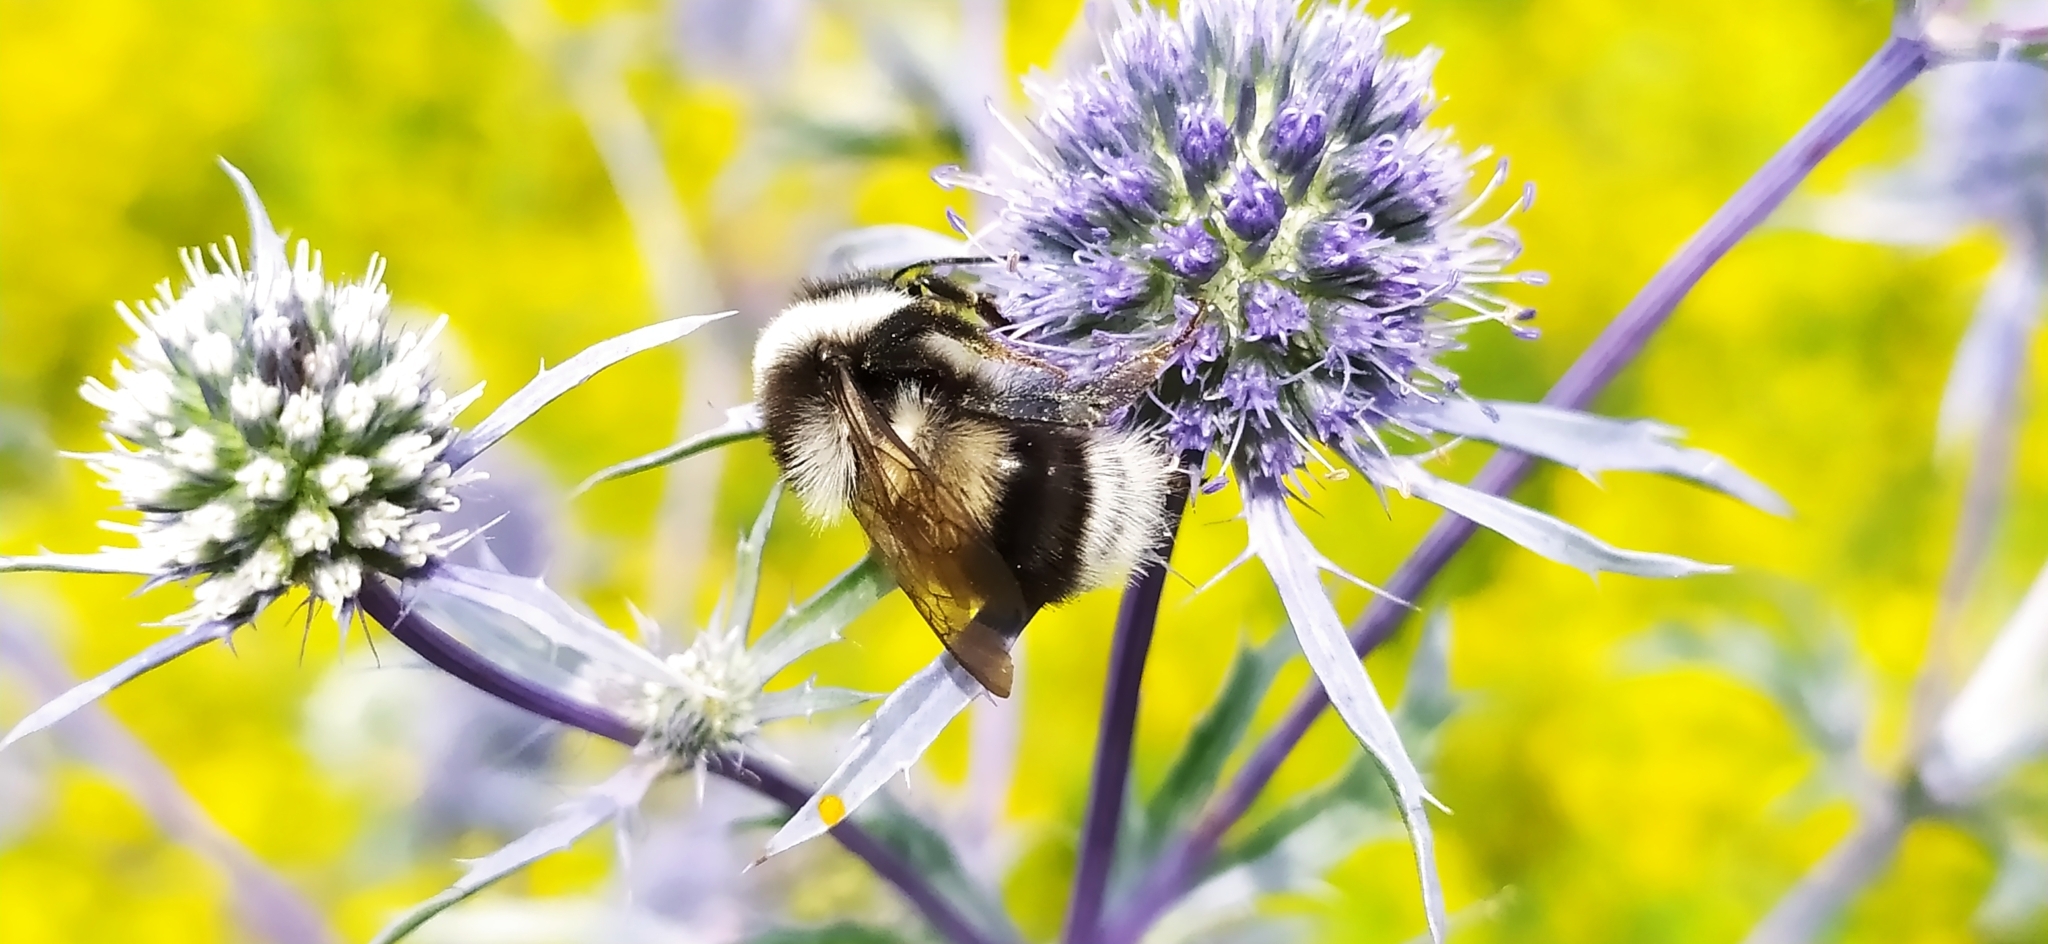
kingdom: Animalia
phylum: Arthropoda
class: Insecta
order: Hymenoptera
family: Apidae
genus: Bombus
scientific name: Bombus patagiatus
